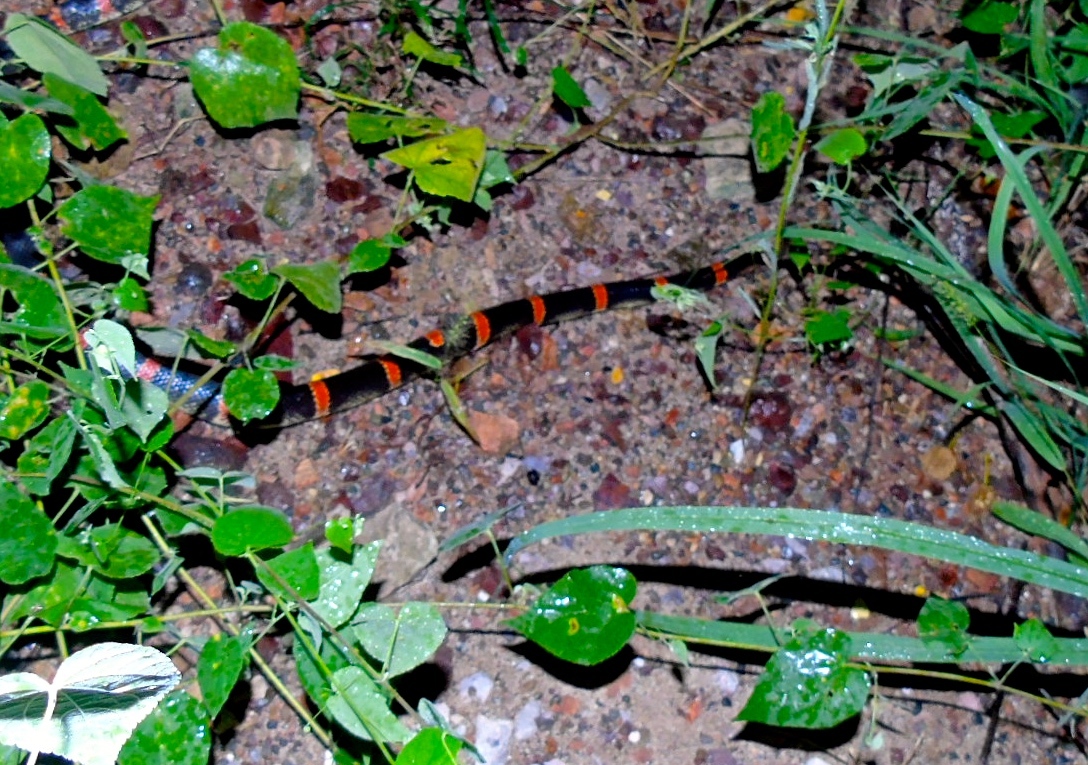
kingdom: Animalia
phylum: Chordata
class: Squamata
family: Colubridae
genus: Rhinocheilus
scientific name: Rhinocheilus antonii
